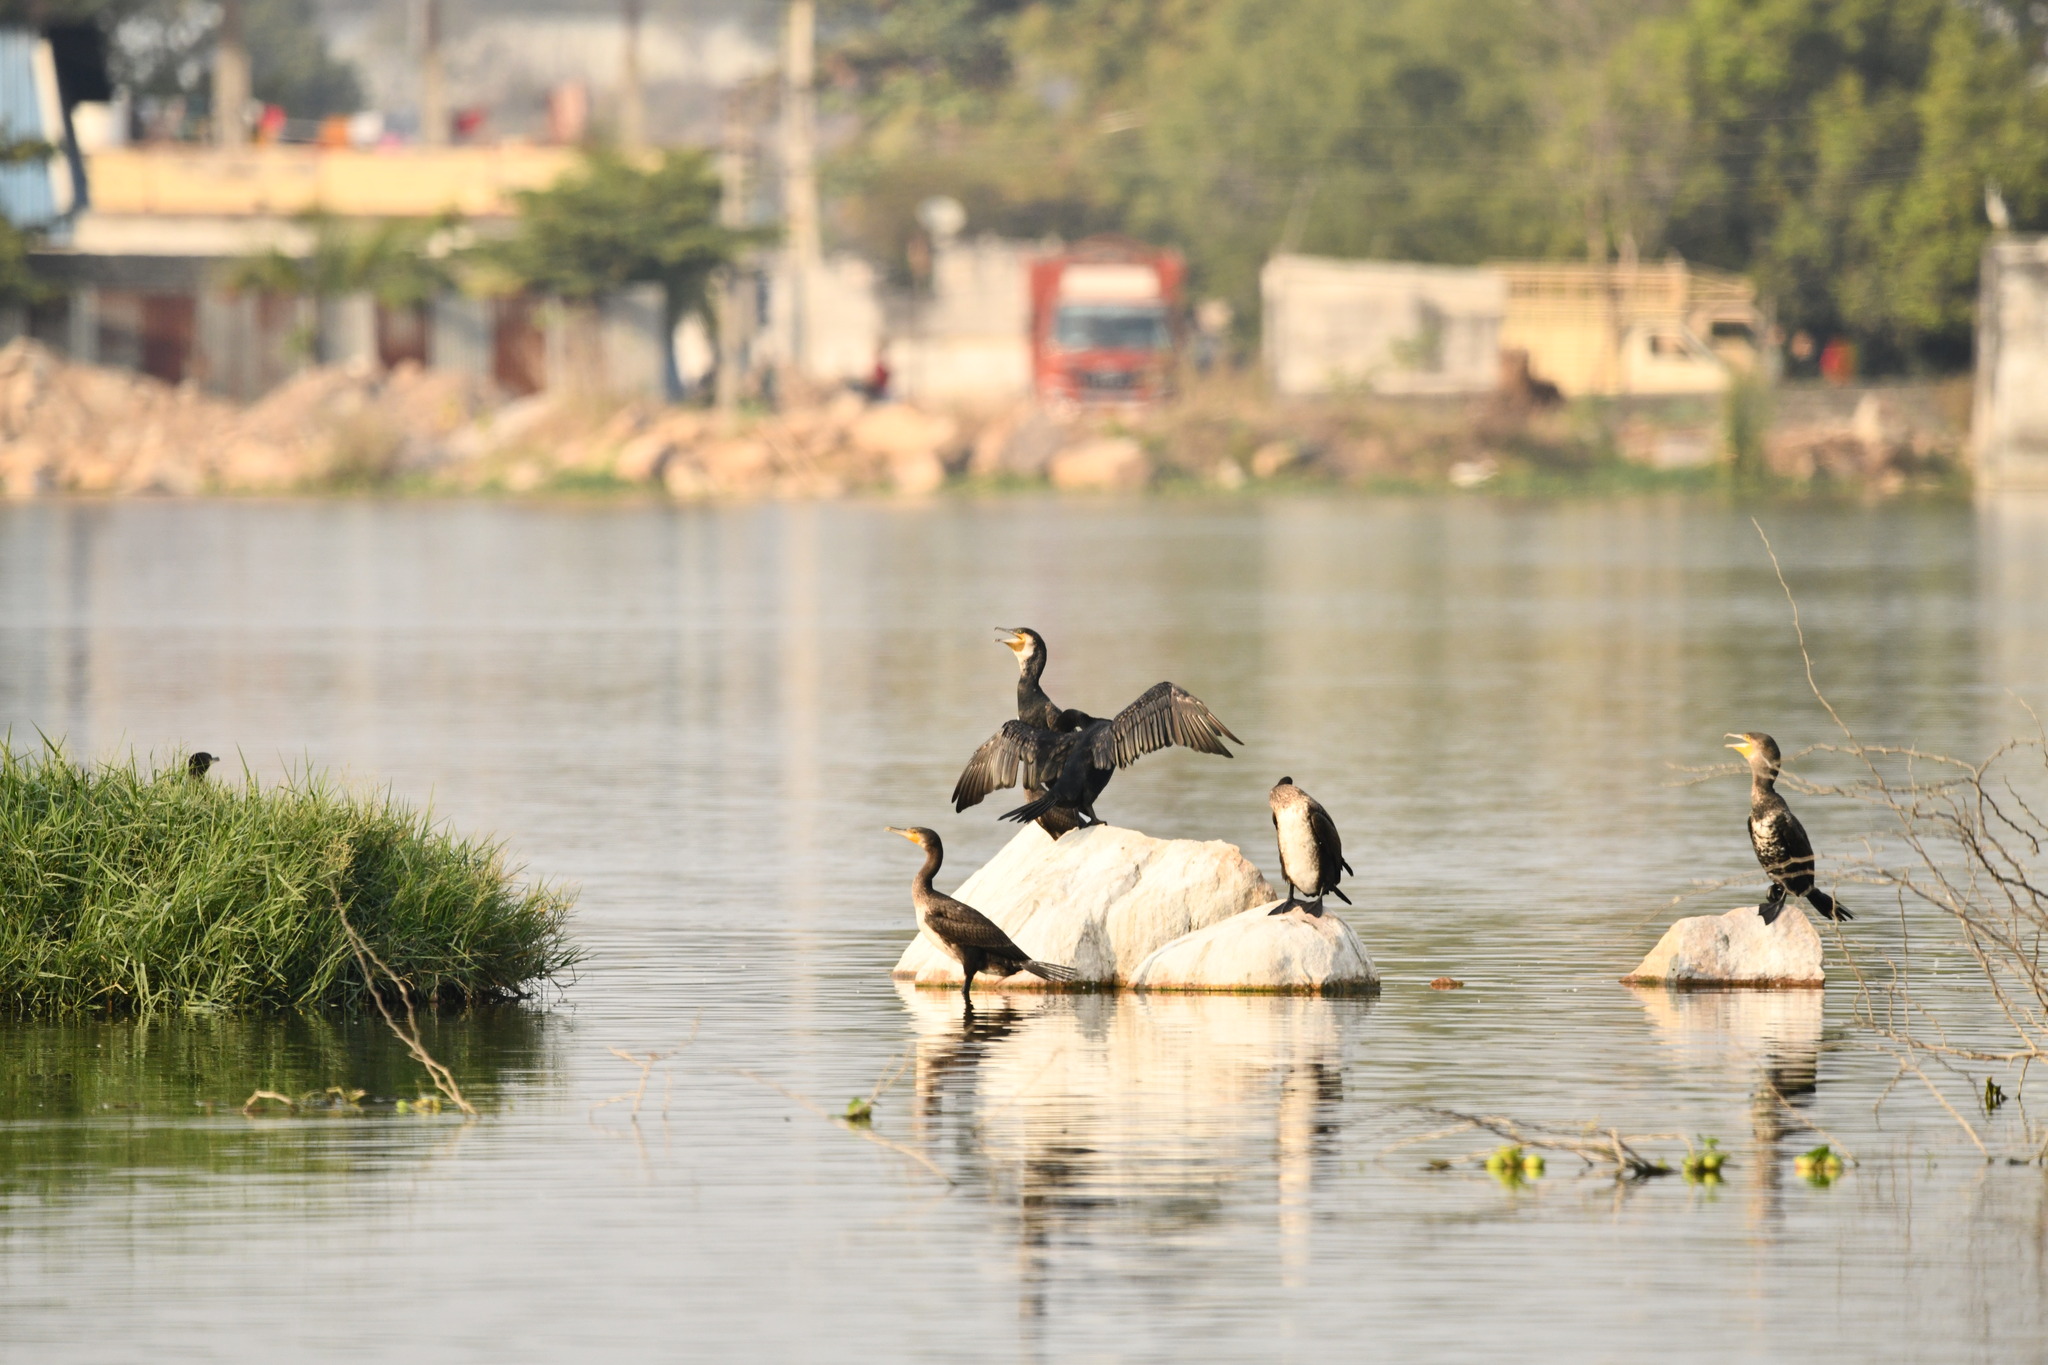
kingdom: Animalia
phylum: Chordata
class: Aves
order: Suliformes
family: Phalacrocoracidae
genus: Phalacrocorax
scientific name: Phalacrocorax carbo
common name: Great cormorant
